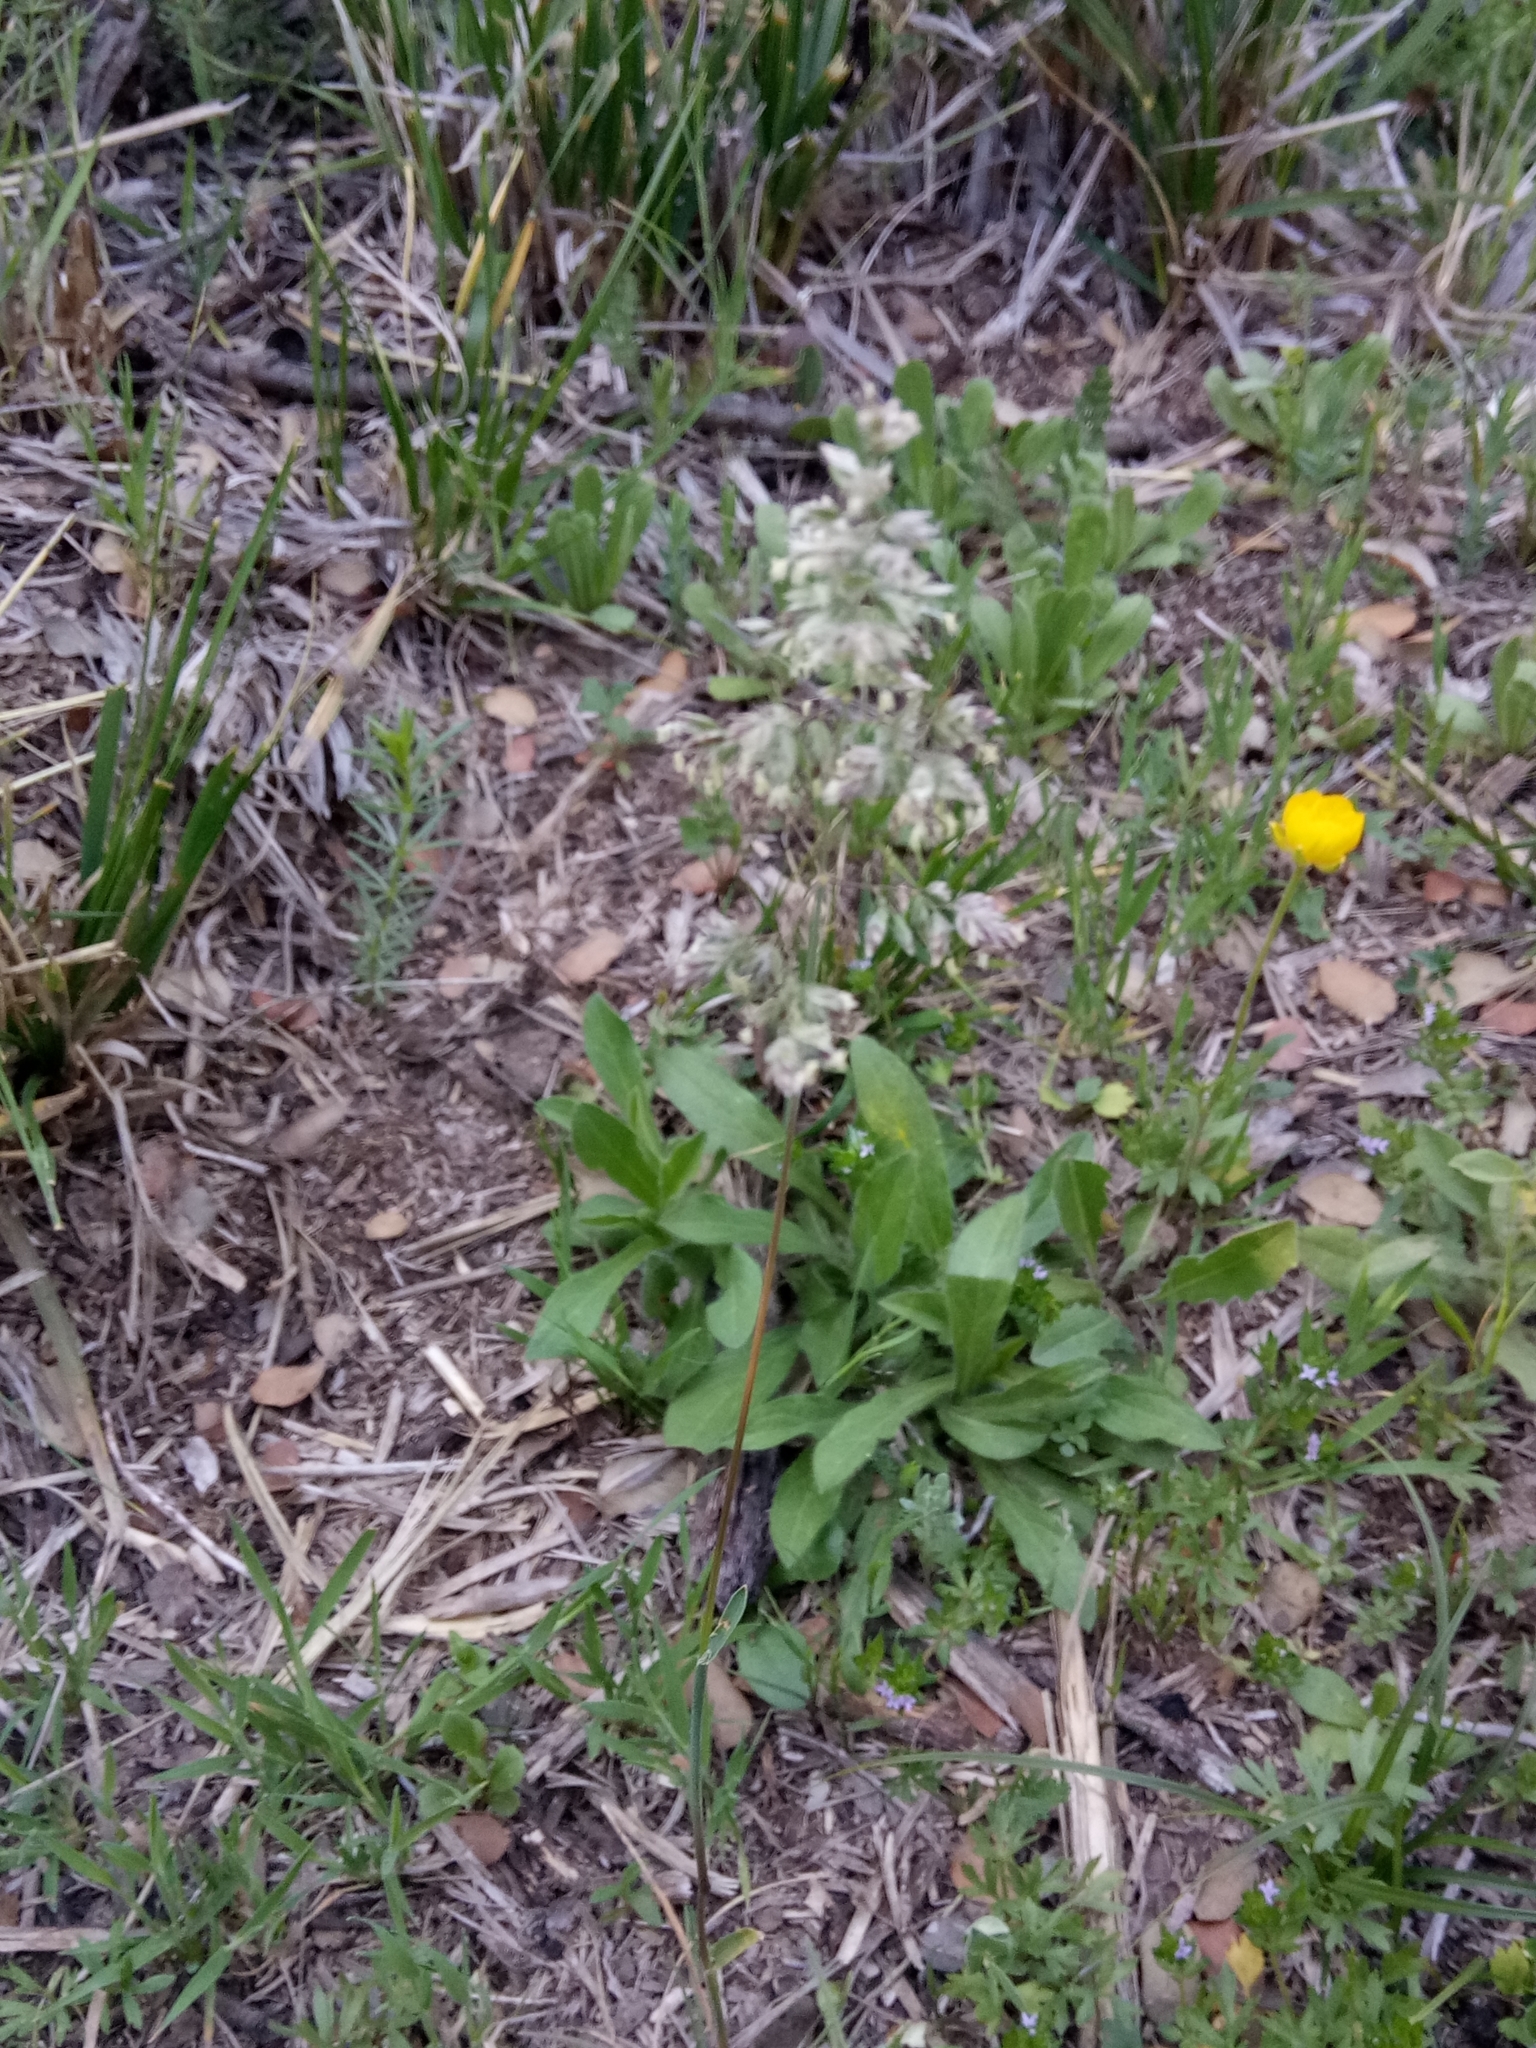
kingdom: Plantae
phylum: Tracheophyta
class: Liliopsida
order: Poales
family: Poaceae
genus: Poa
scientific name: Poa bulbosa
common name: Bulbous bluegrass
